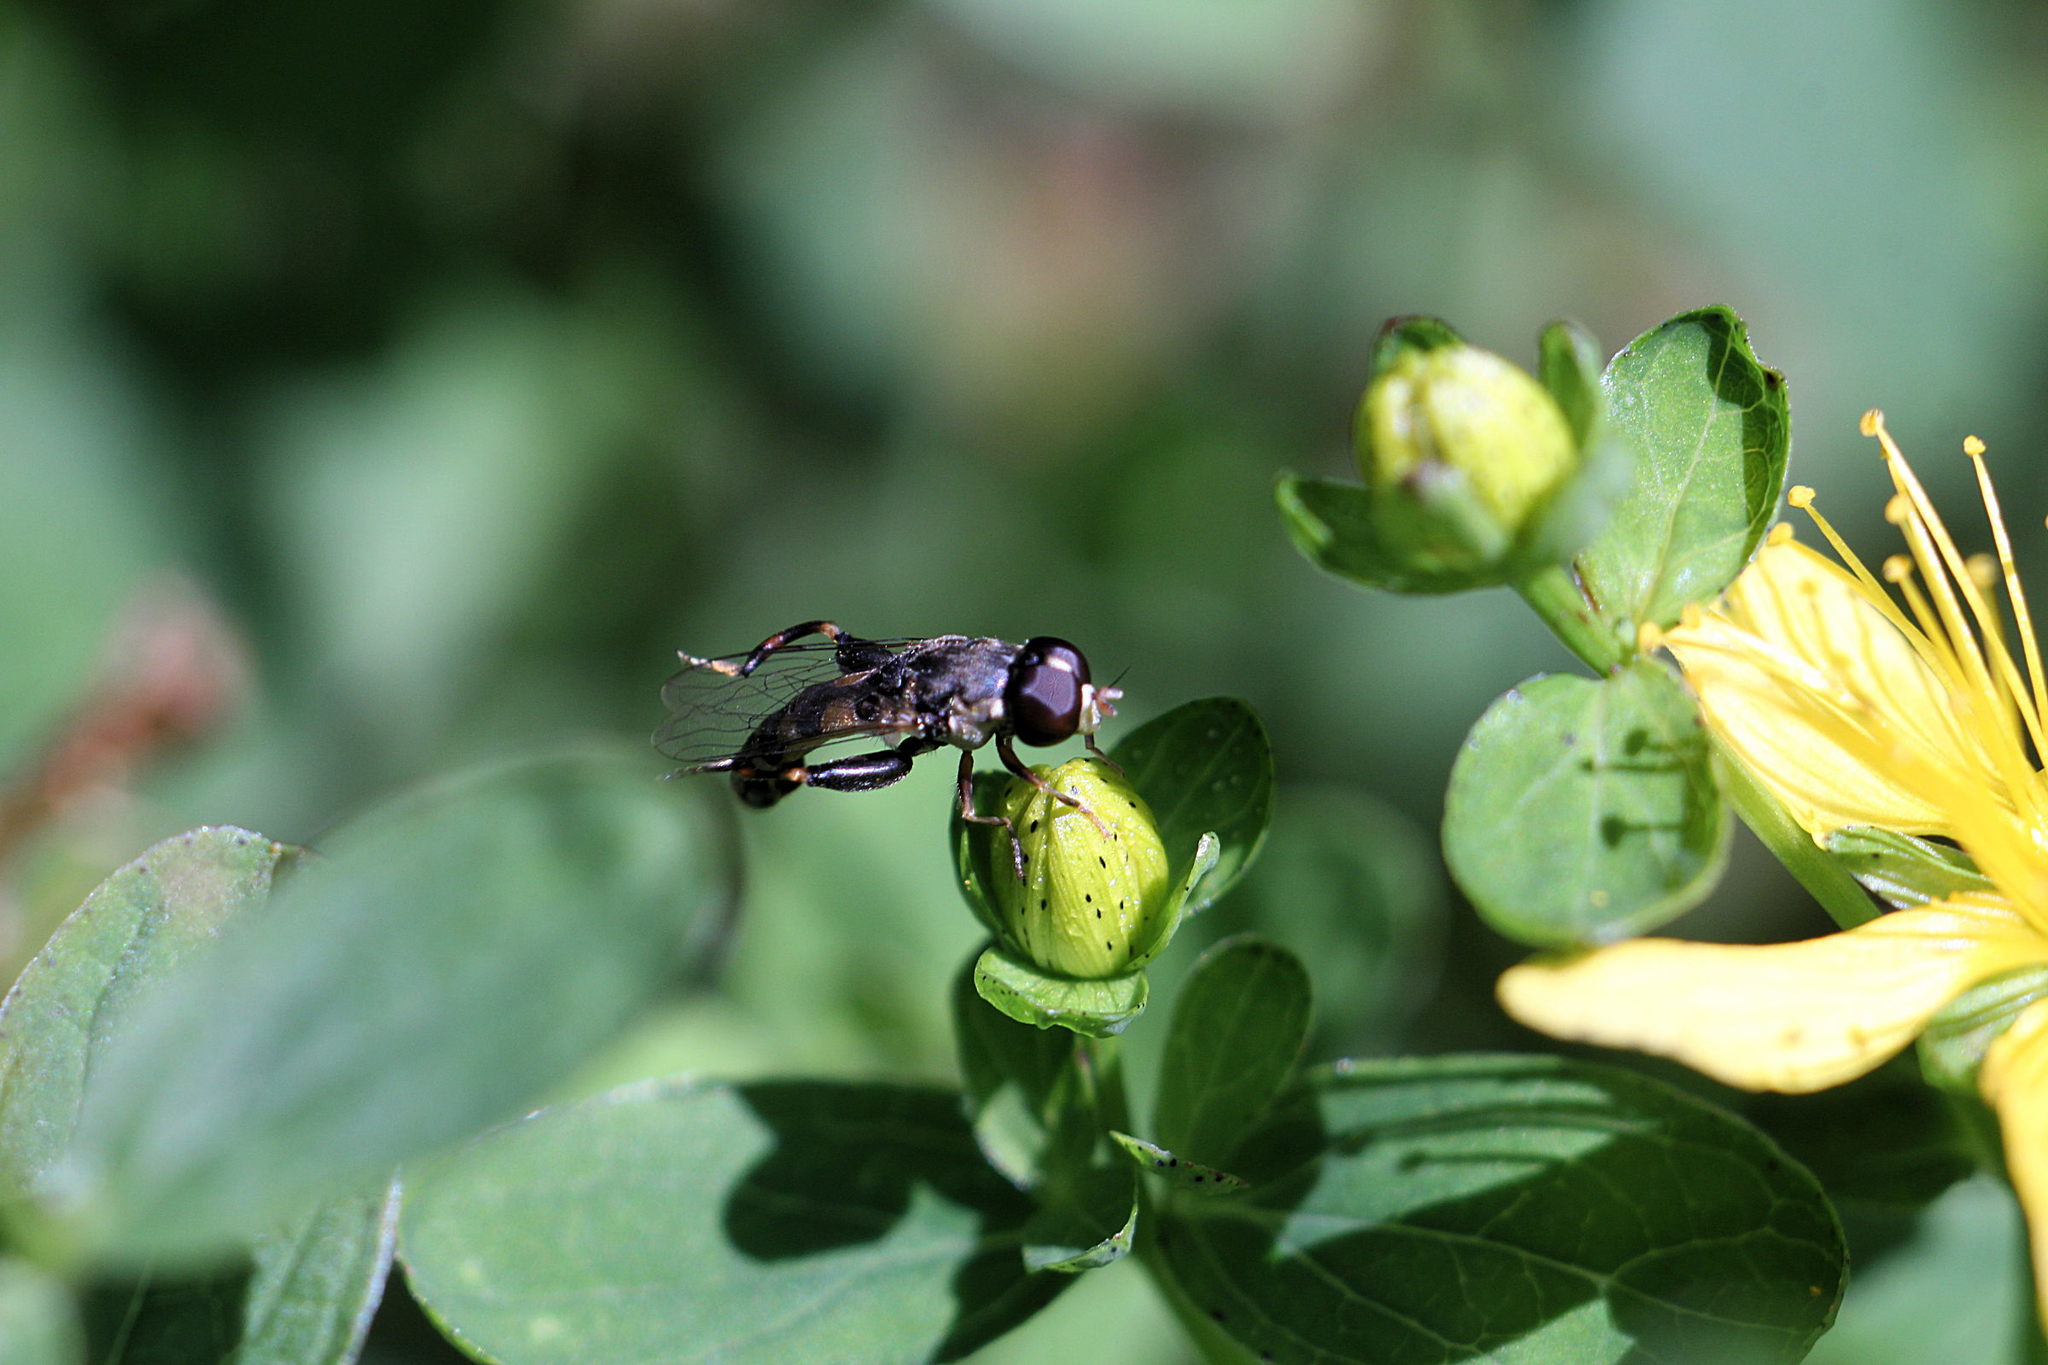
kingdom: Animalia
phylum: Arthropoda
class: Insecta
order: Diptera
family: Syrphidae
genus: Syritta
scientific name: Syritta pipiens
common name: Hover fly
